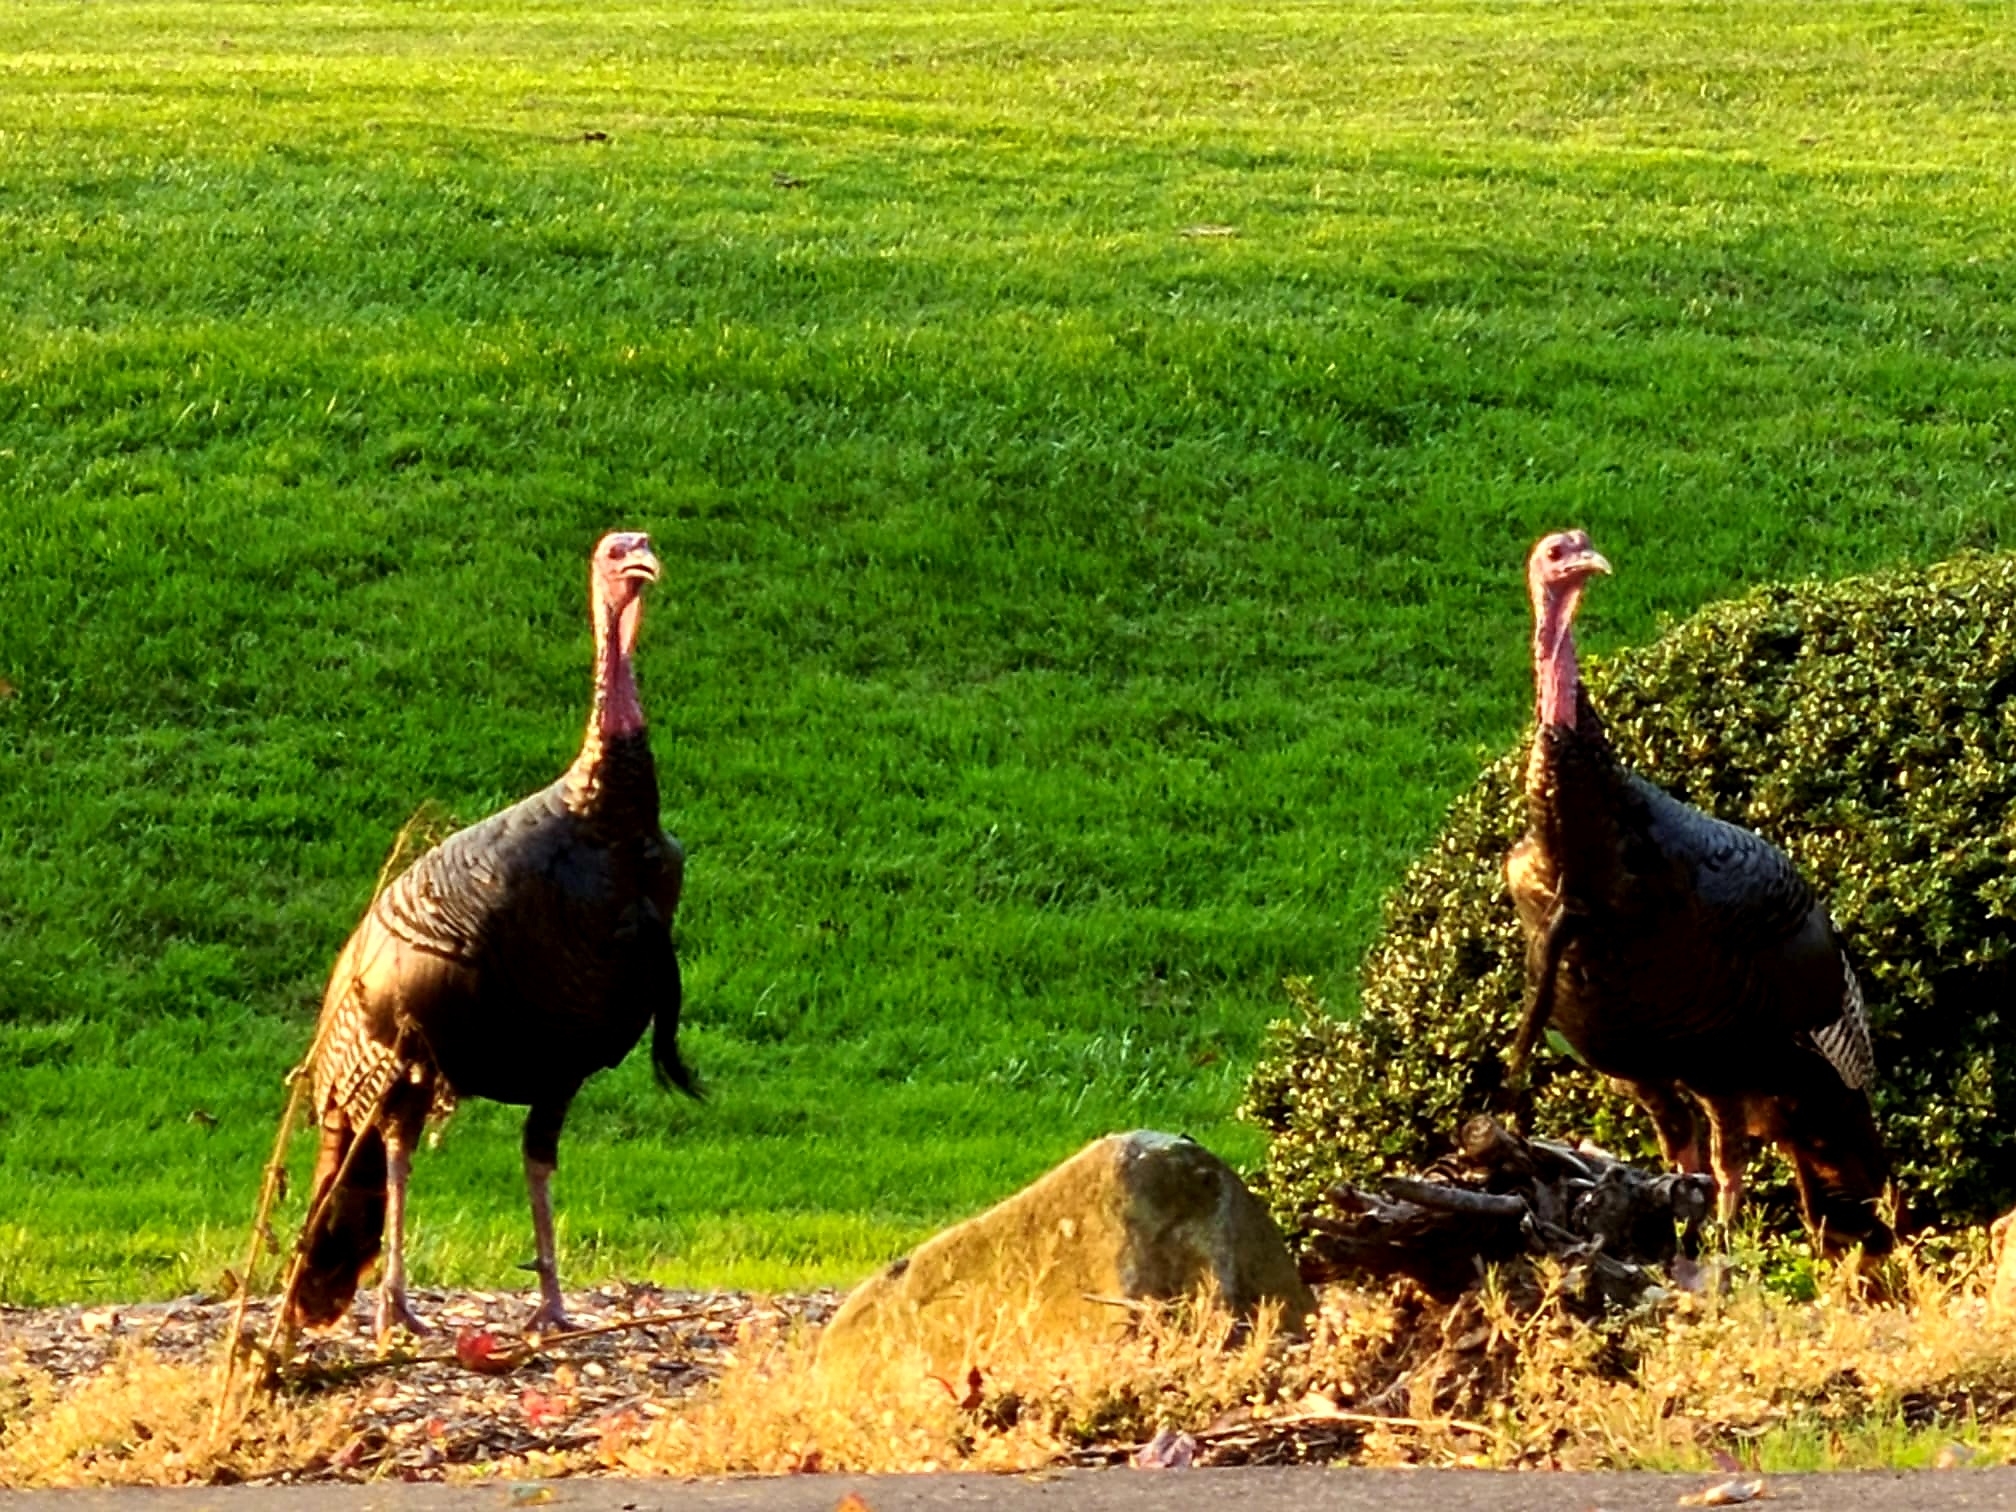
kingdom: Animalia
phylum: Chordata
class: Aves
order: Galliformes
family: Phasianidae
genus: Meleagris
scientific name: Meleagris gallopavo
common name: Wild turkey
